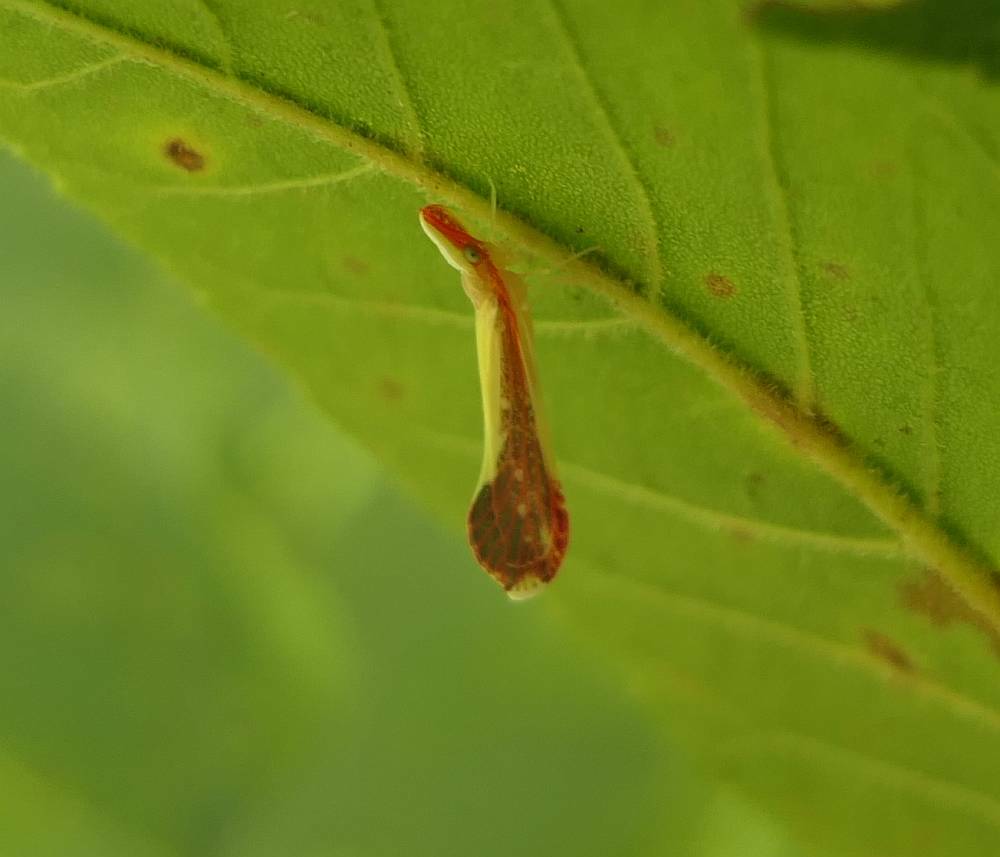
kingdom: Animalia
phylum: Arthropoda
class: Insecta
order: Hemiptera
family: Derbidae
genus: Shellenius
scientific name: Shellenius ballii
